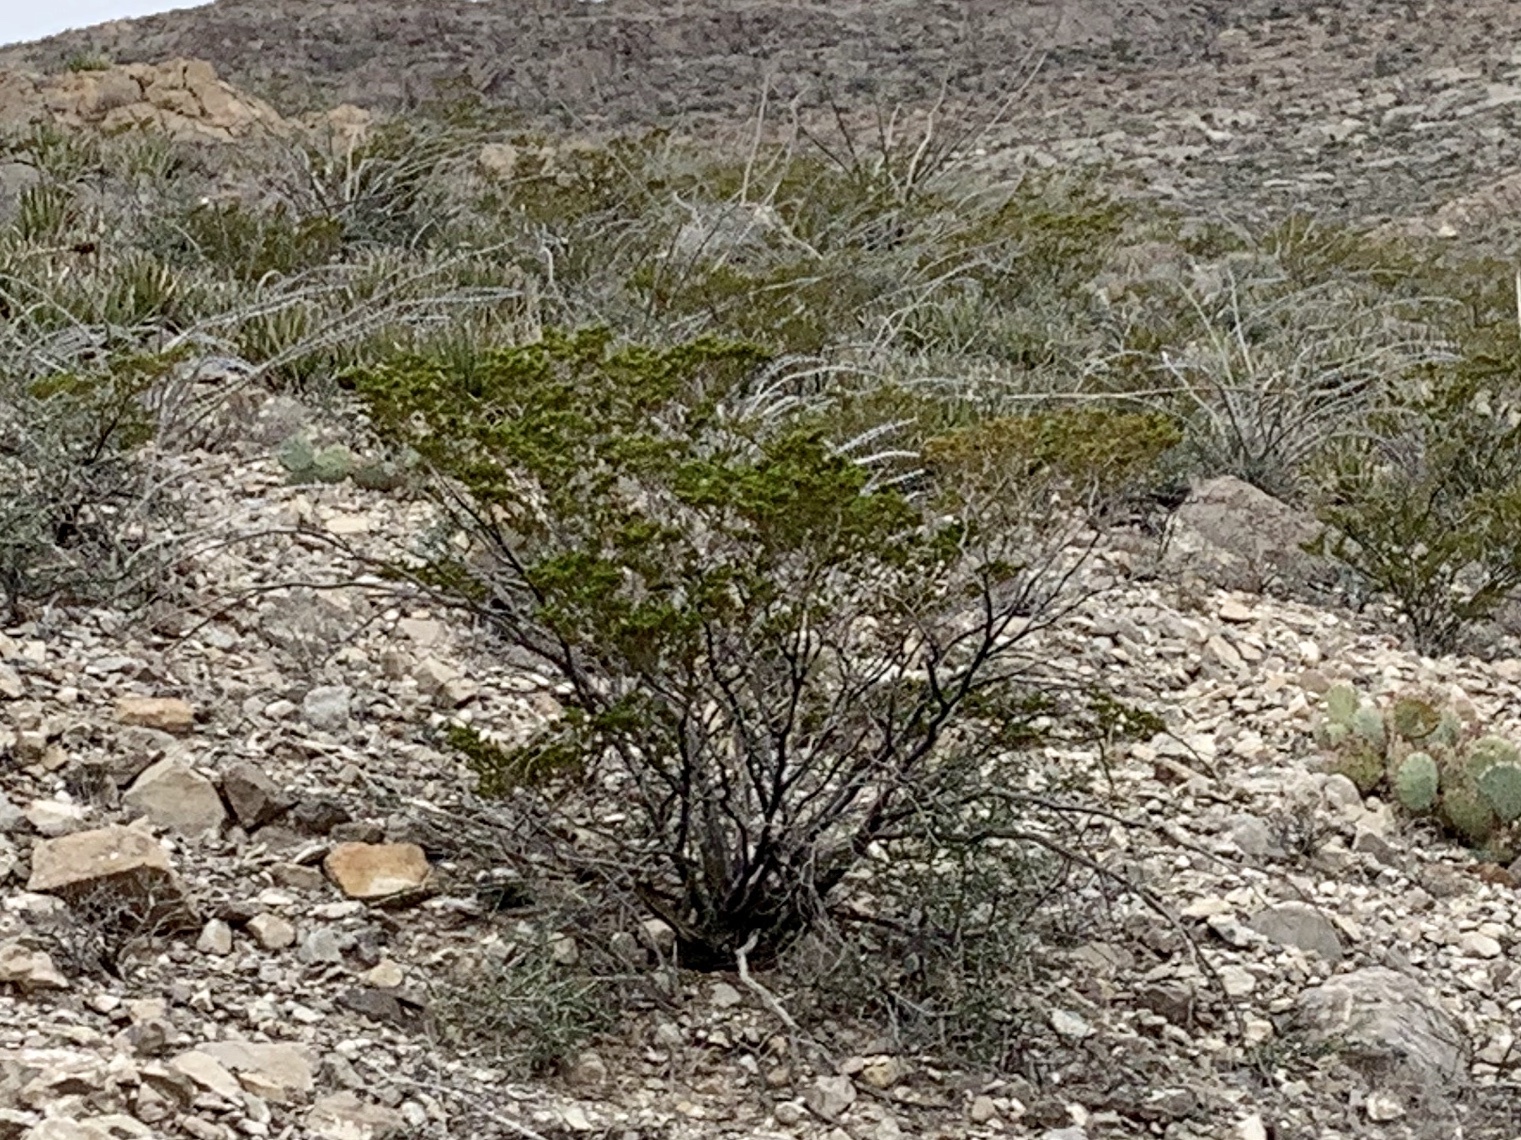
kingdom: Plantae
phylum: Tracheophyta
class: Magnoliopsida
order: Zygophyllales
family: Zygophyllaceae
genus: Larrea
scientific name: Larrea tridentata
